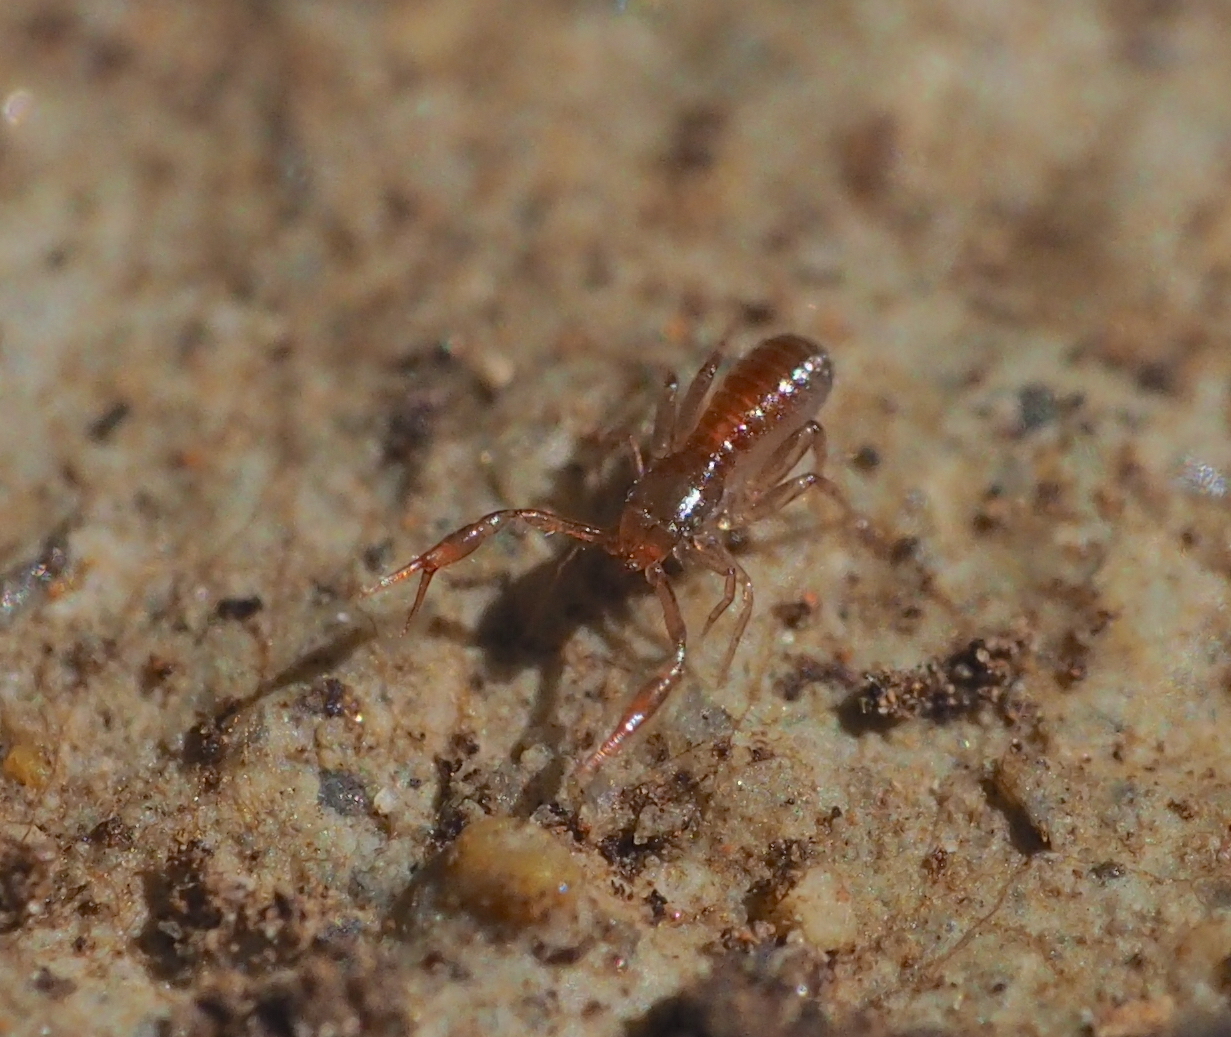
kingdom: Animalia
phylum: Arthropoda
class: Arachnida
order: Pseudoscorpiones
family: Chthoniidae
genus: Ephippiochthonius
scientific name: Ephippiochthonius tetrachelatus
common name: Pseudoscorpion
